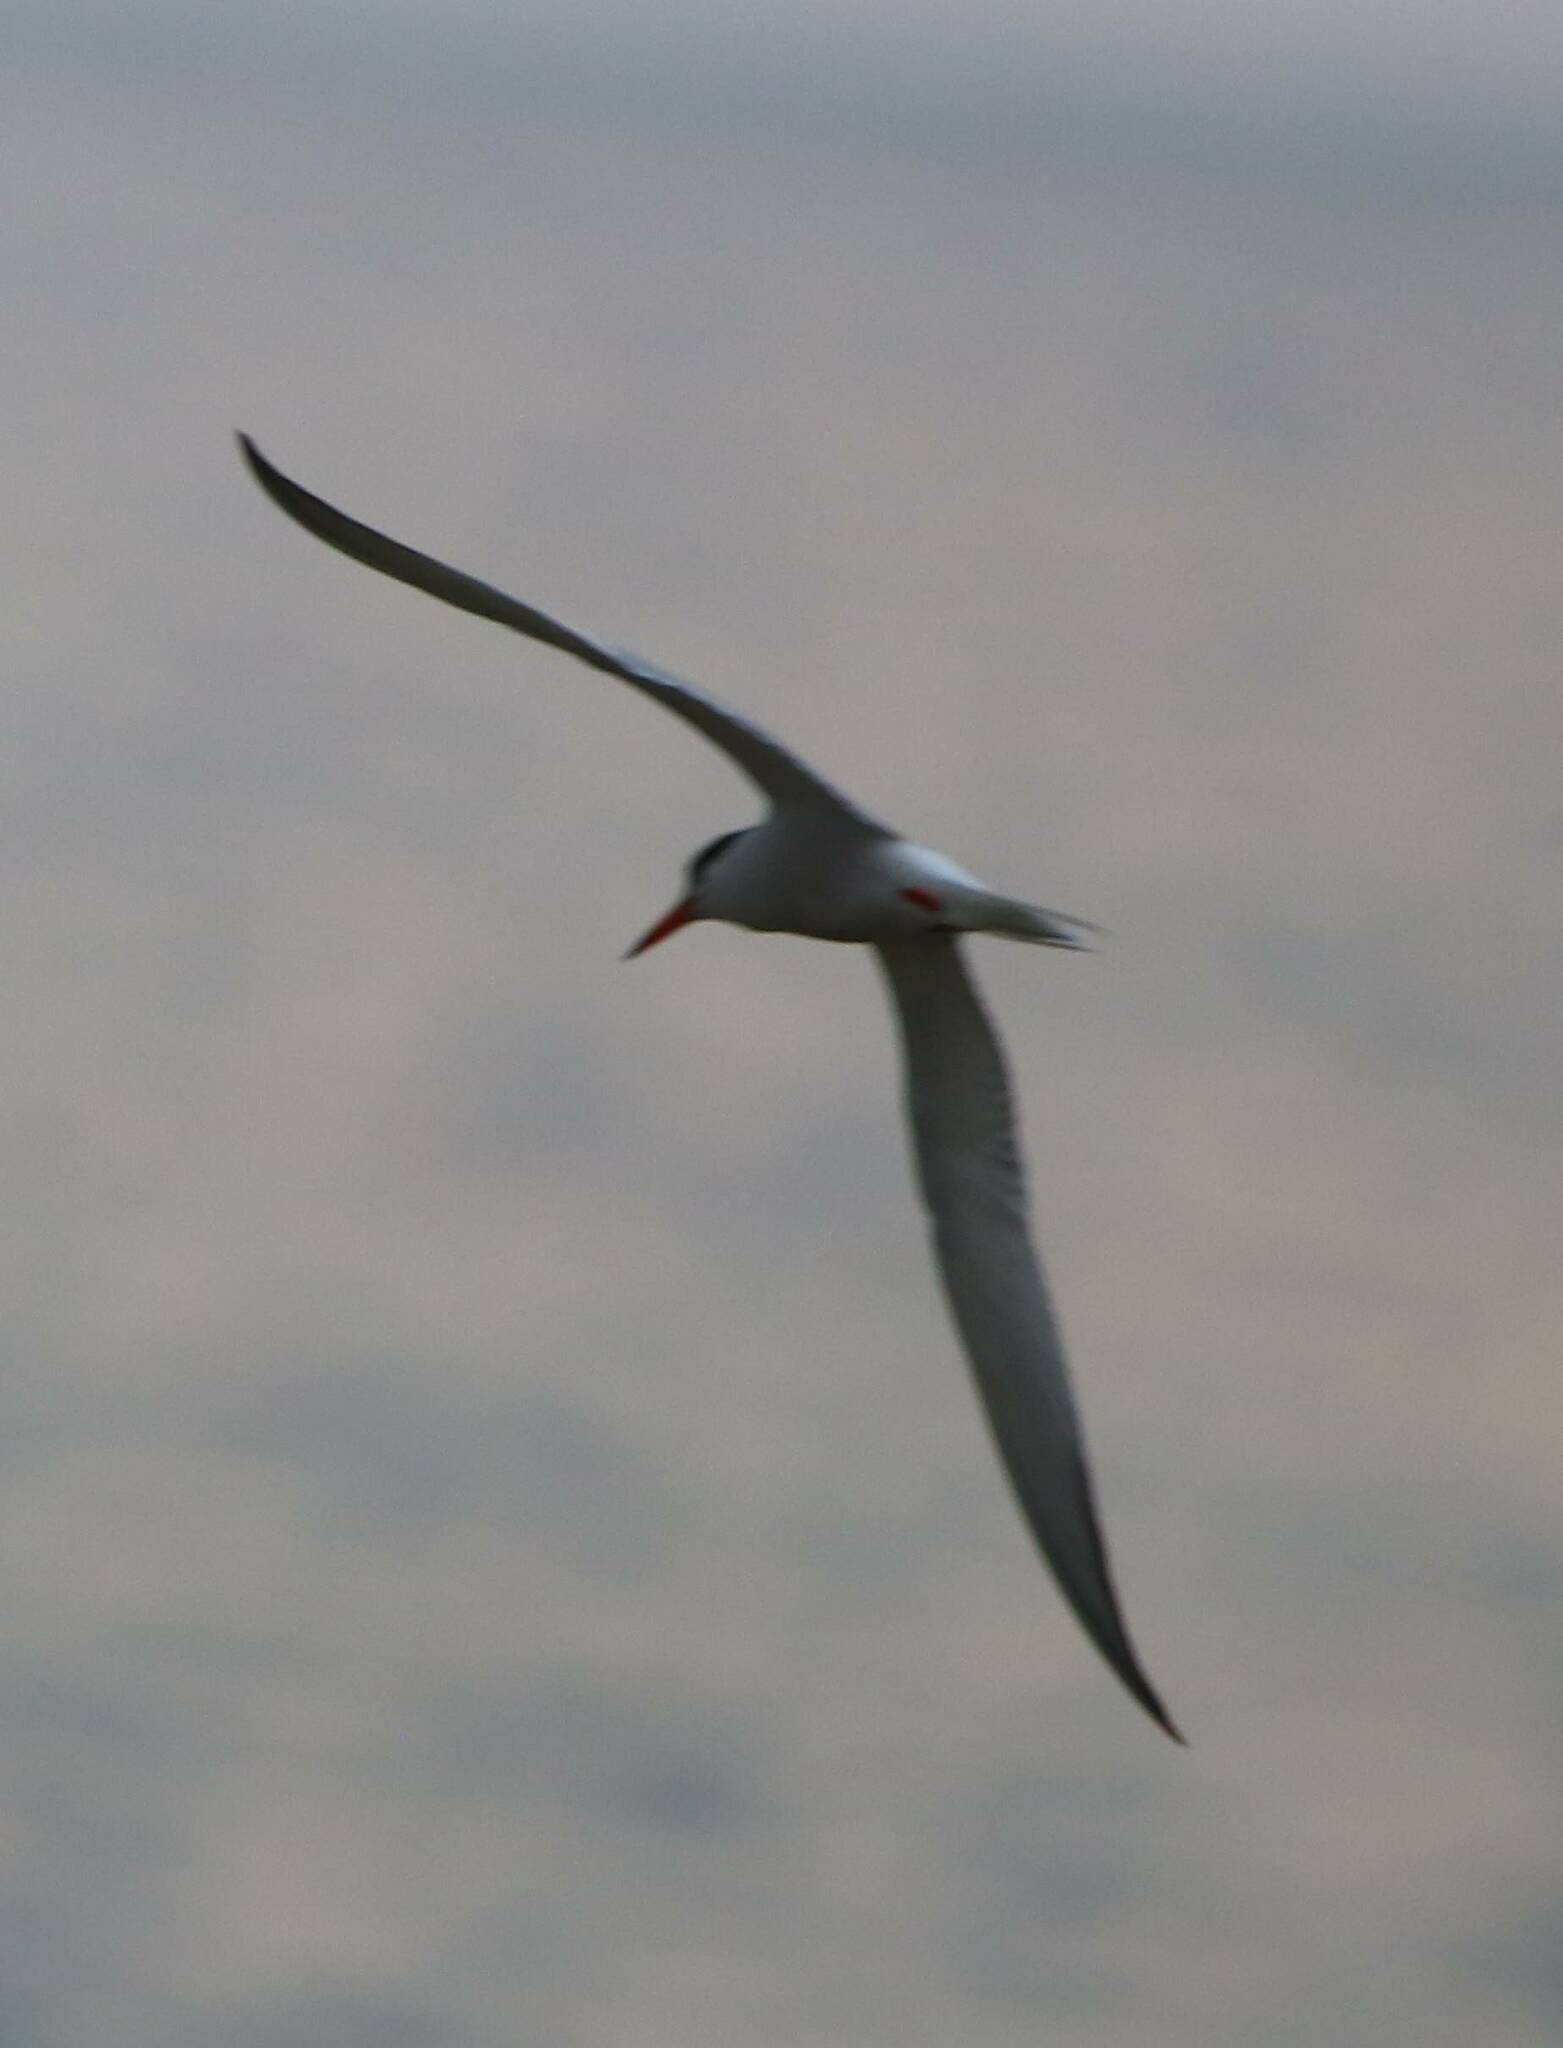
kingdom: Animalia
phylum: Chordata
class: Aves
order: Charadriiformes
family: Laridae
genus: Sterna
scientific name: Sterna hirundo
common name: Common tern
